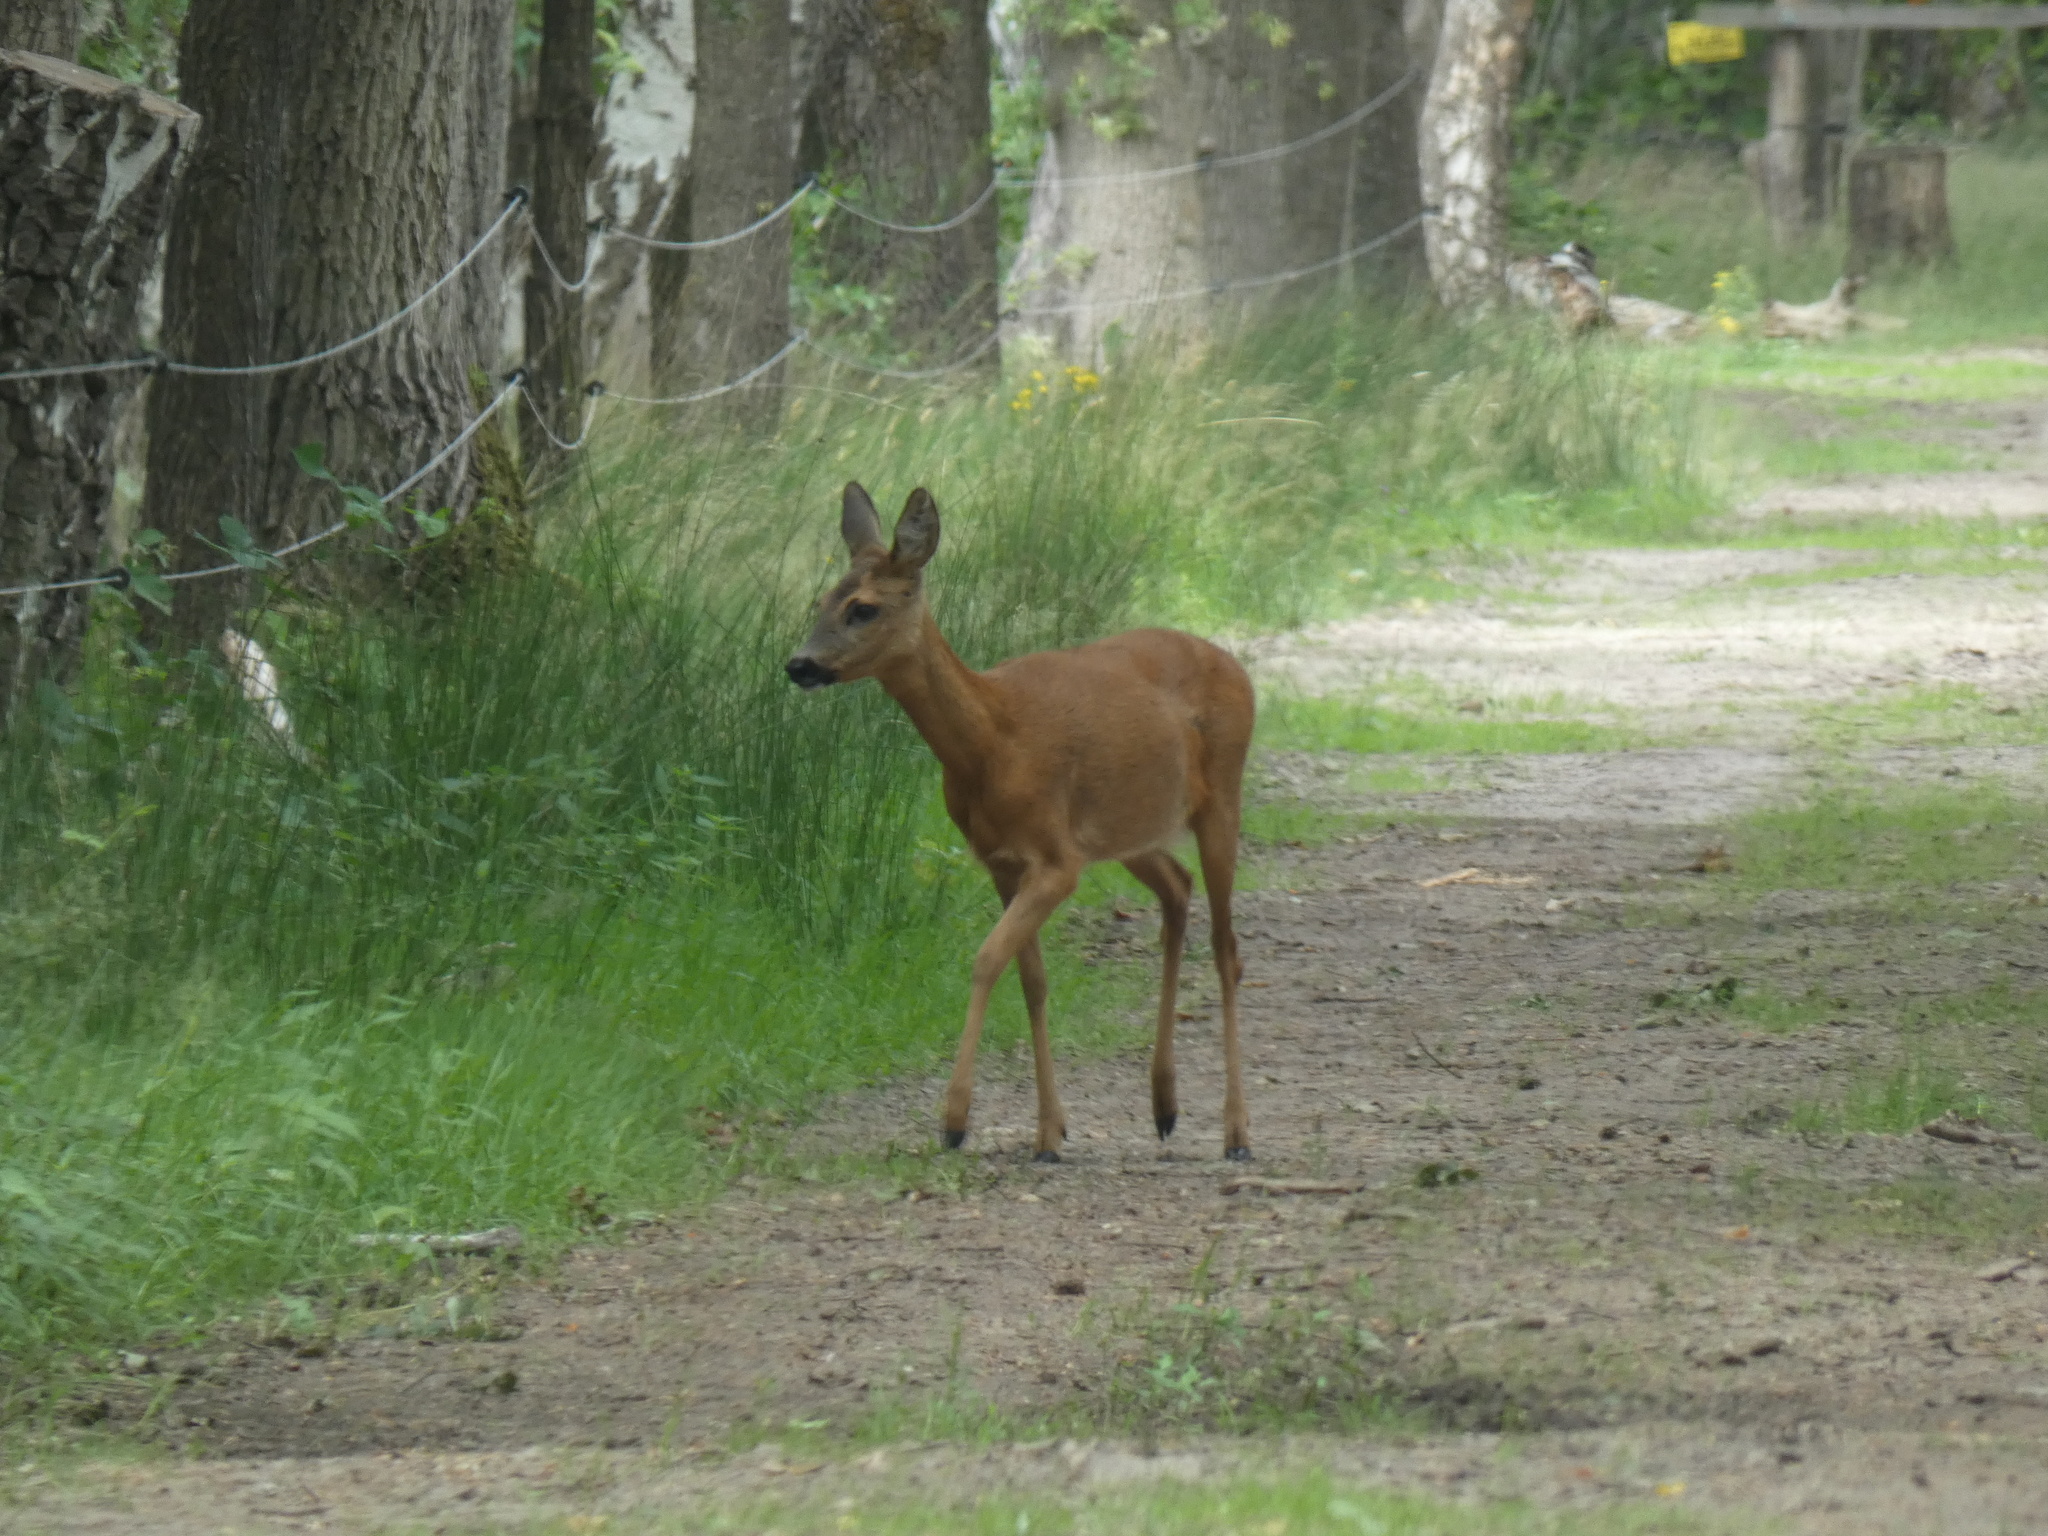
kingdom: Animalia
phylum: Chordata
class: Mammalia
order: Artiodactyla
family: Cervidae
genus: Capreolus
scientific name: Capreolus capreolus
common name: Western roe deer
